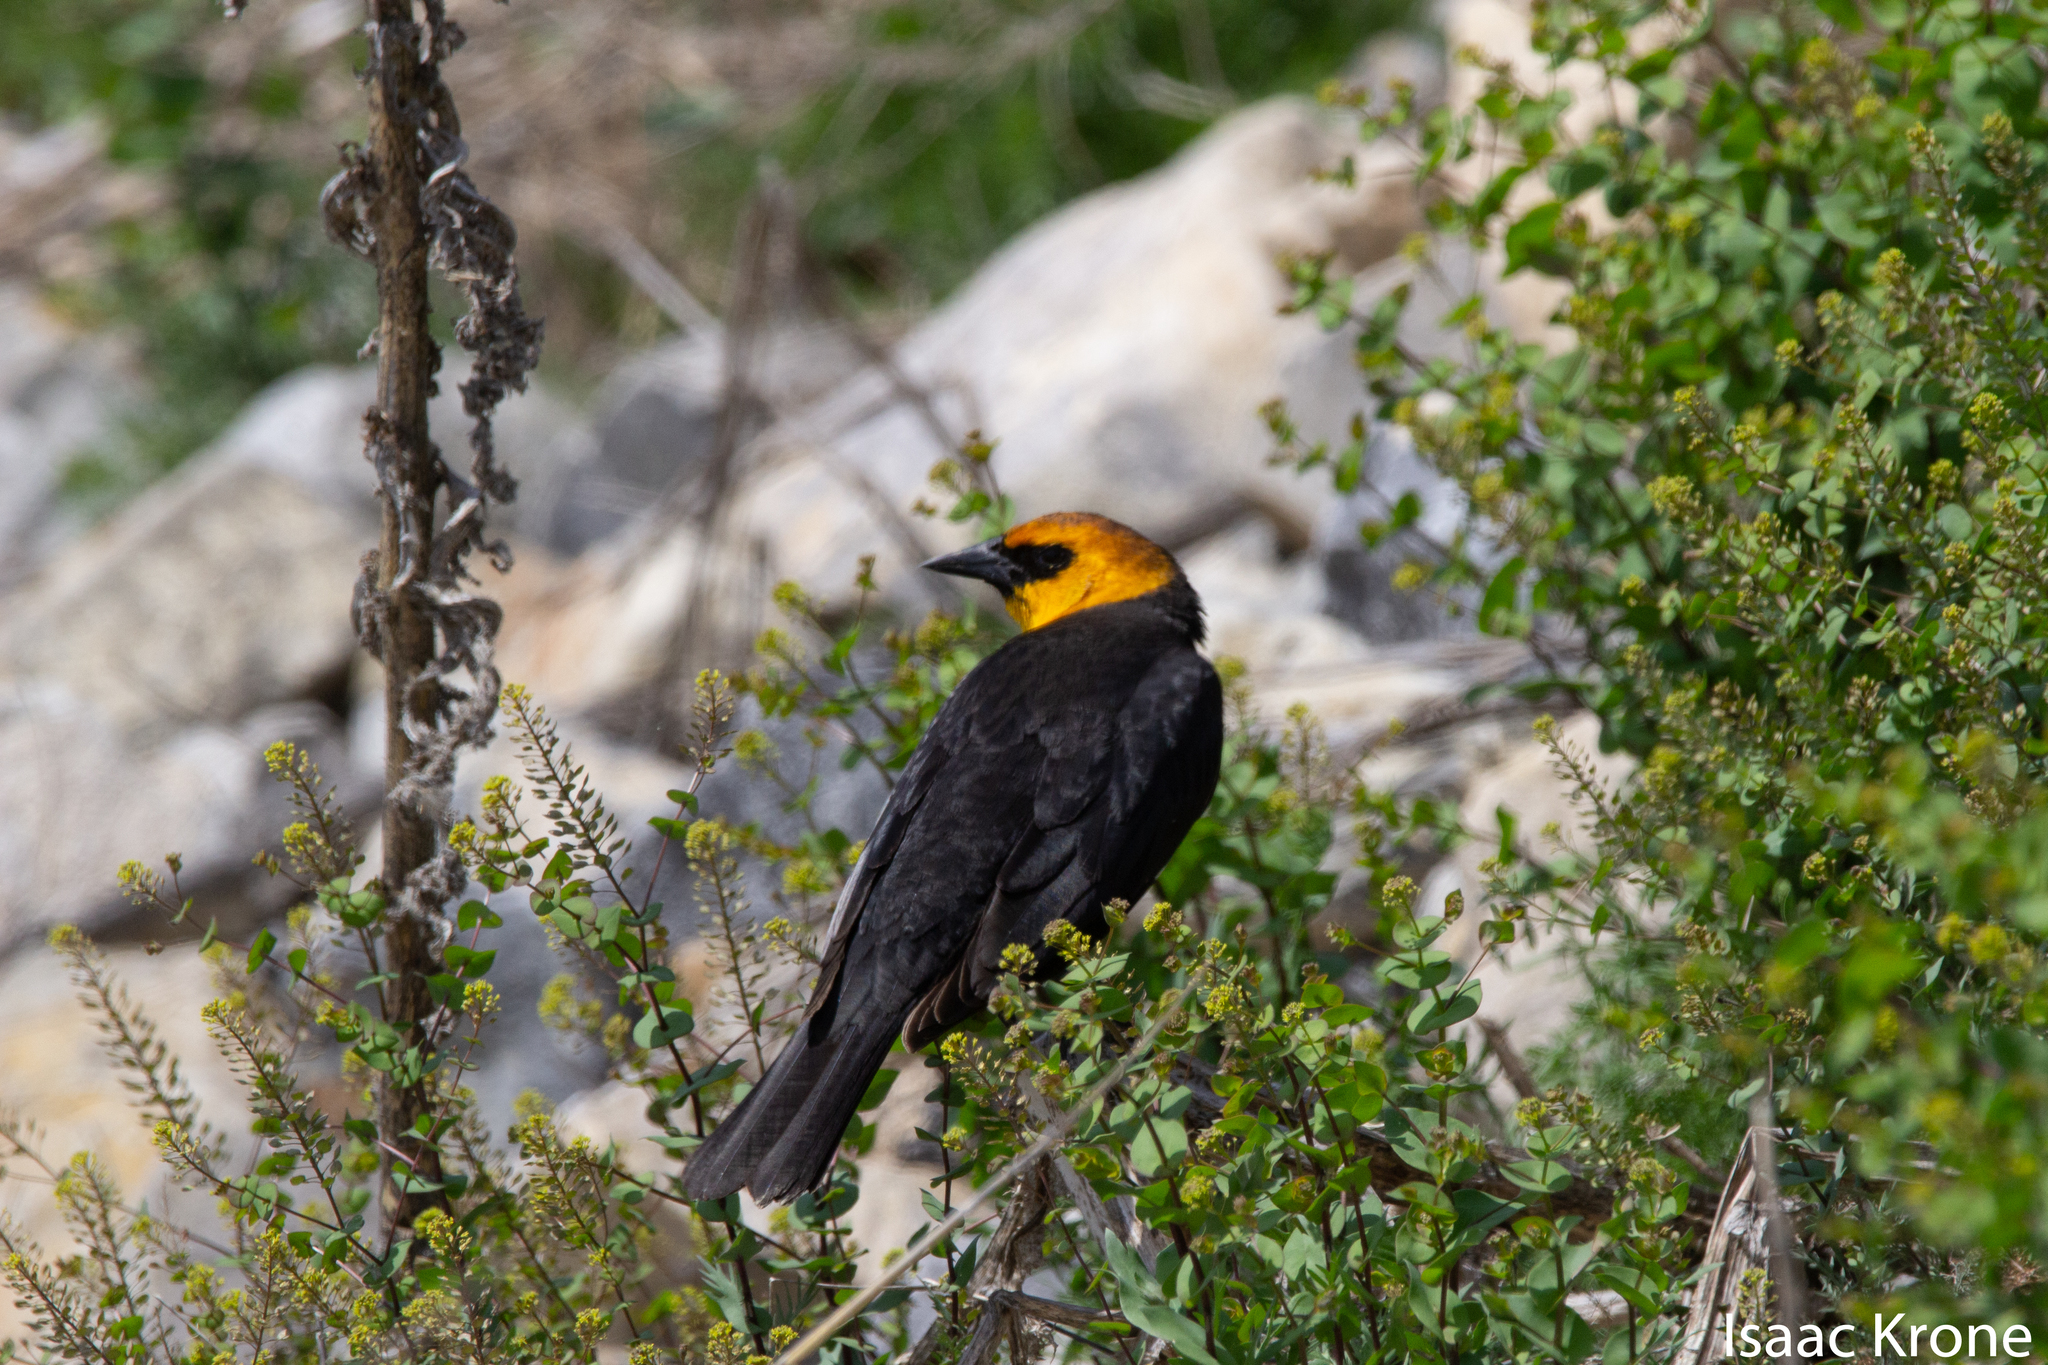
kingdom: Animalia
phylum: Chordata
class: Aves
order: Passeriformes
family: Icteridae
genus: Xanthocephalus
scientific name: Xanthocephalus xanthocephalus
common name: Yellow-headed blackbird
